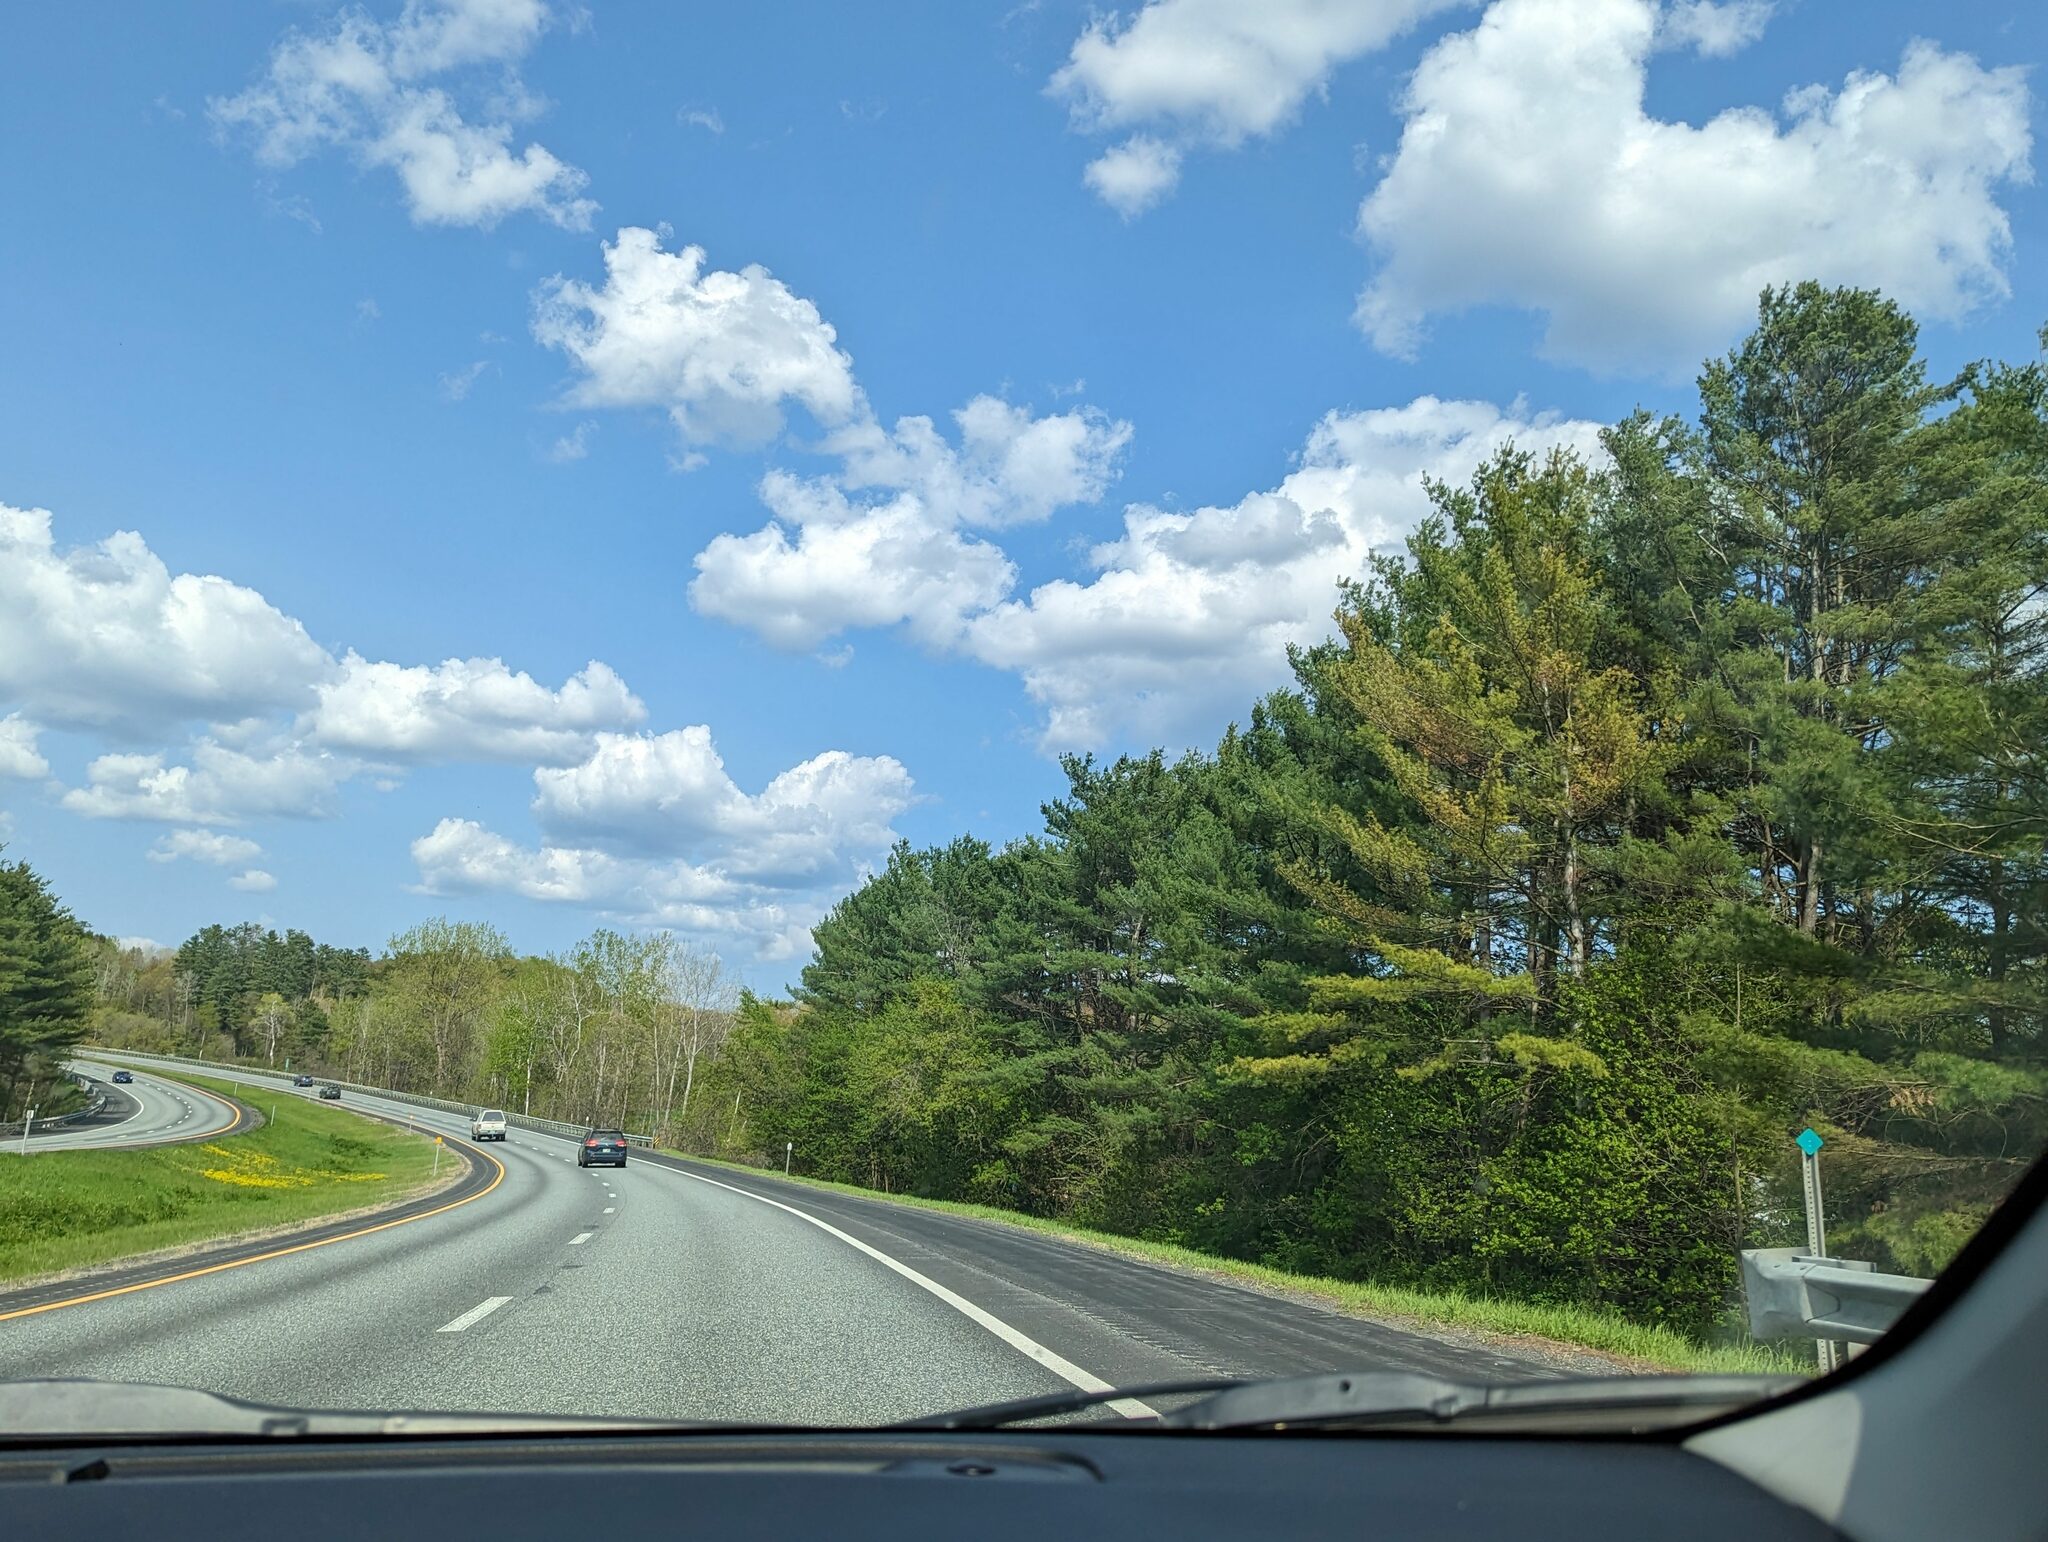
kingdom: Plantae
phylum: Tracheophyta
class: Pinopsida
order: Pinales
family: Pinaceae
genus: Pinus
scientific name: Pinus strobus
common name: Weymouth pine
